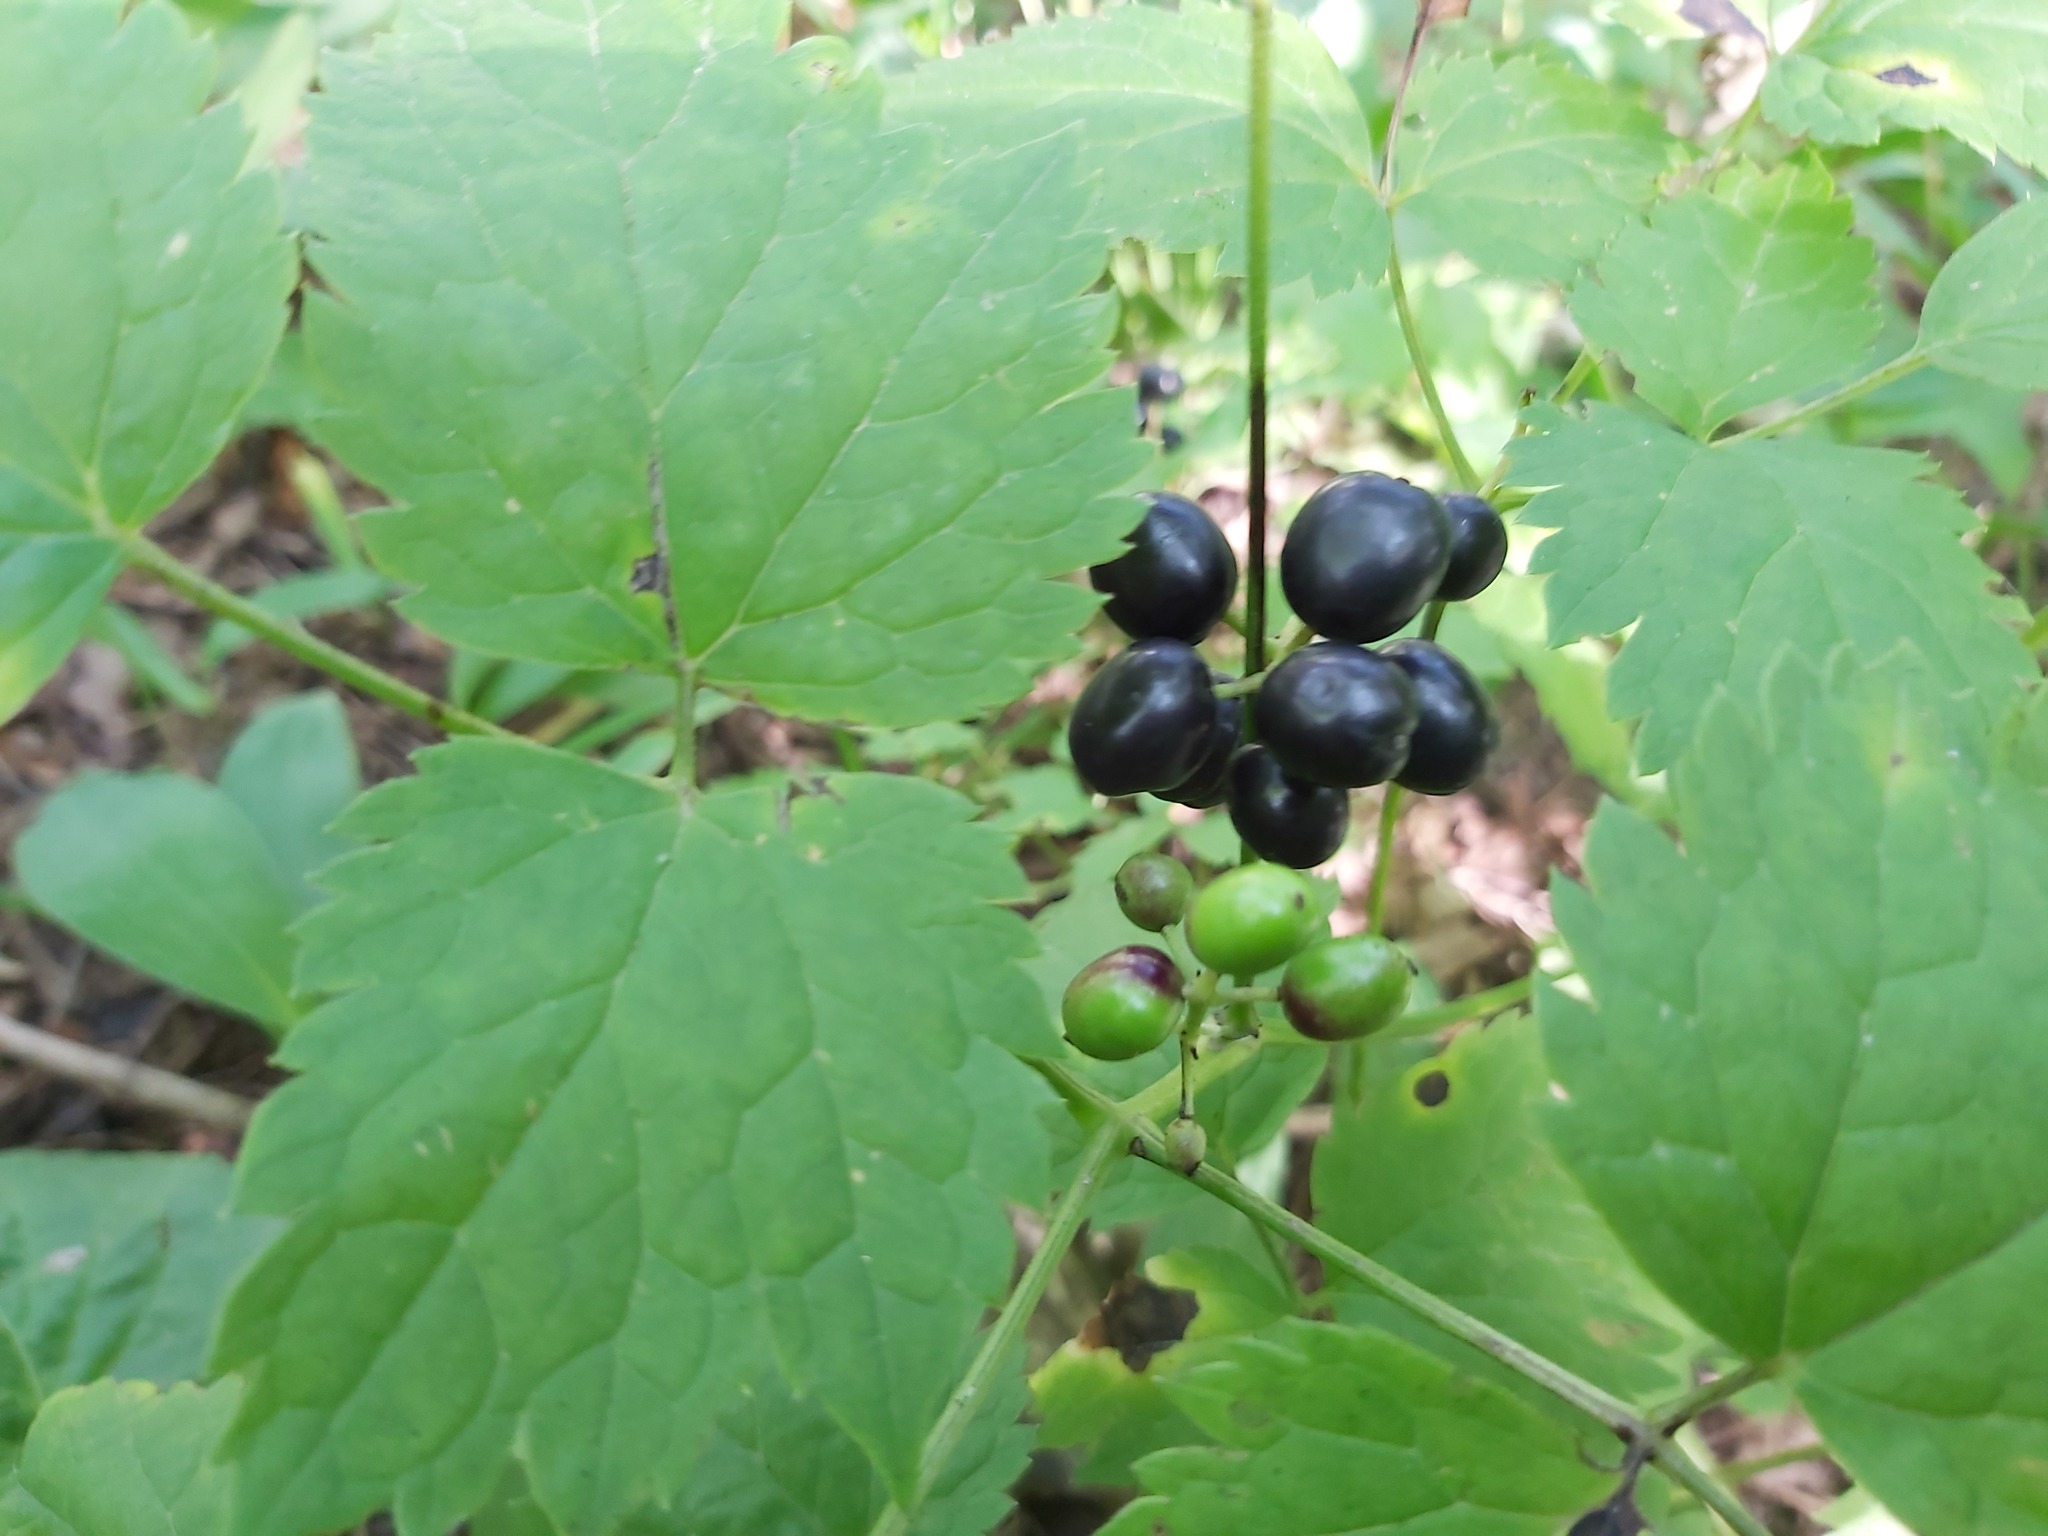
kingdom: Plantae
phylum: Tracheophyta
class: Magnoliopsida
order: Ranunculales
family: Ranunculaceae
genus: Actaea
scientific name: Actaea spicata
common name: Baneberry
